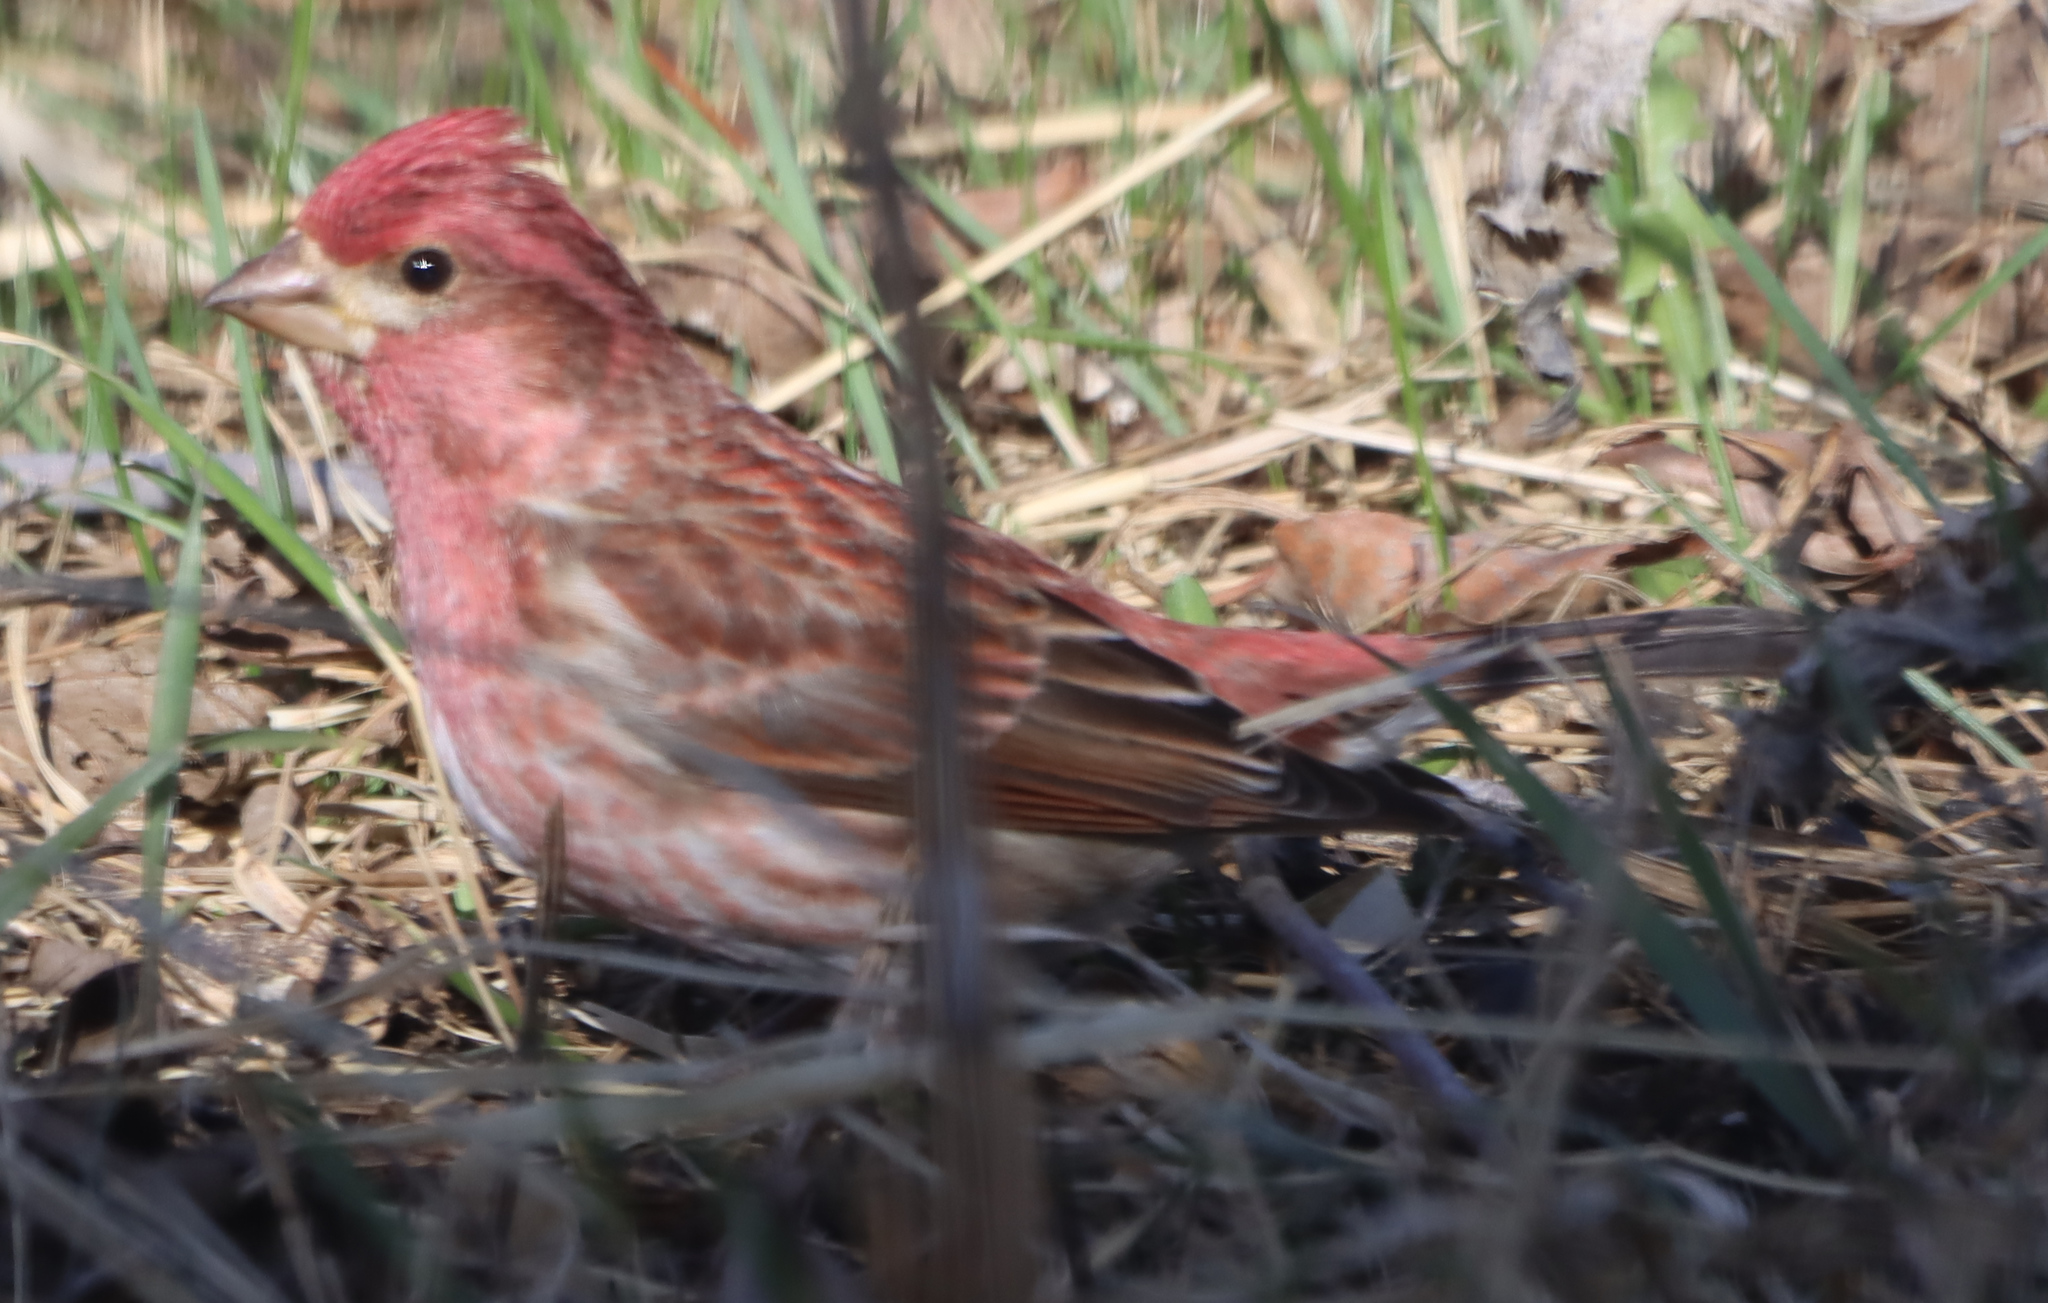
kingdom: Animalia
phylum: Chordata
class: Aves
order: Passeriformes
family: Fringillidae
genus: Haemorhous
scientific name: Haemorhous purpureus
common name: Purple finch
